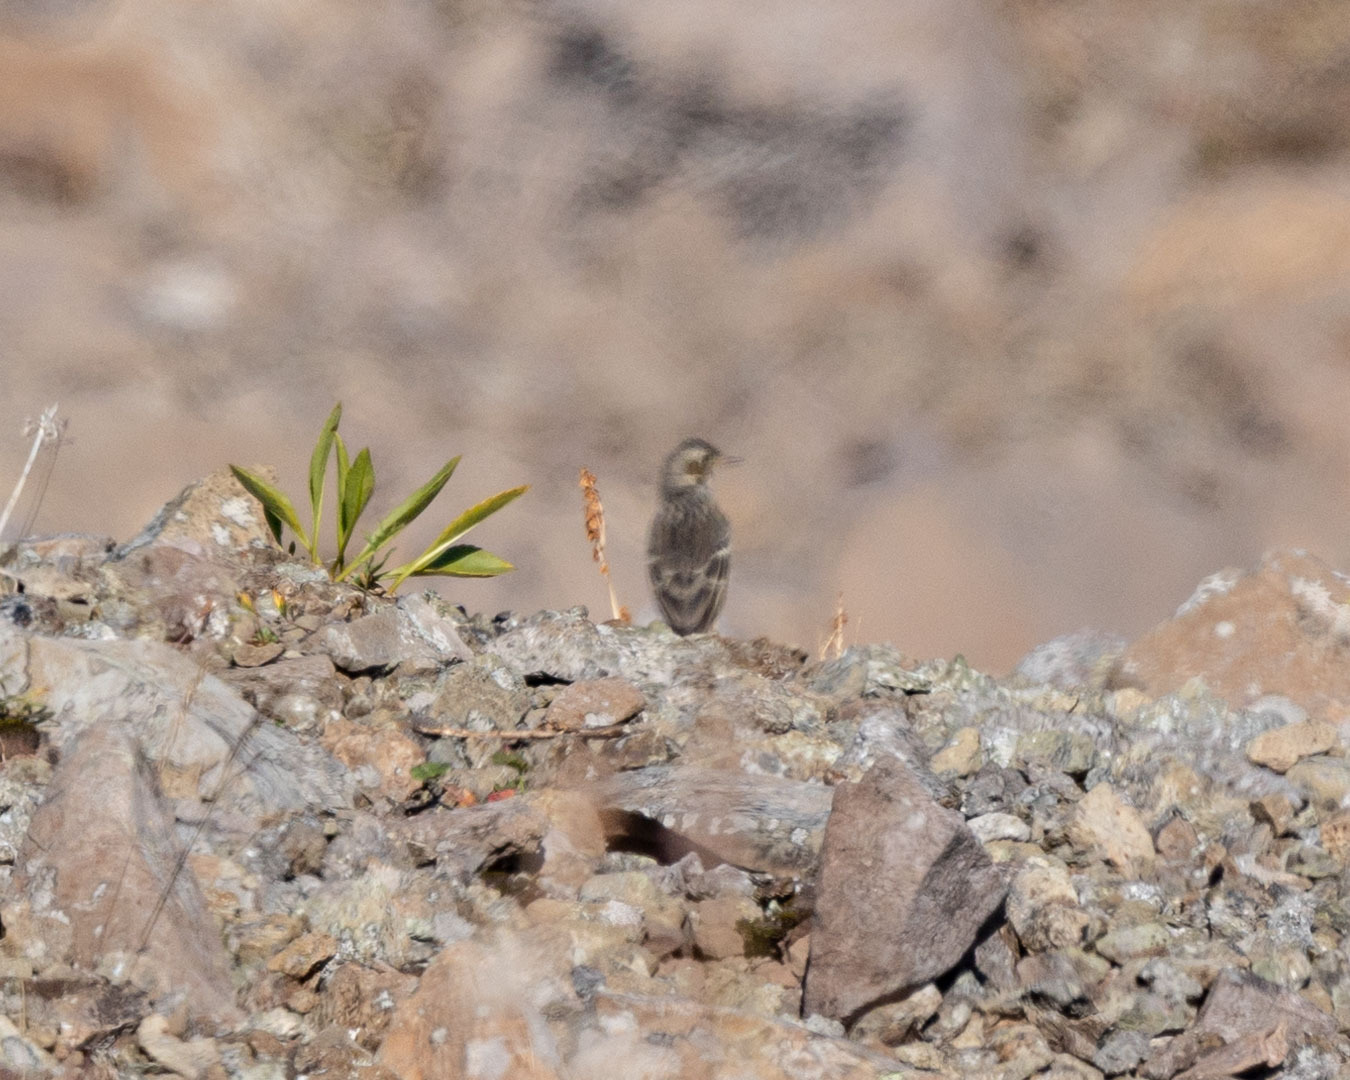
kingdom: Animalia
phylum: Chordata
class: Aves
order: Passeriformes
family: Motacillidae
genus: Anthus
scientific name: Anthus rubescens
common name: Buff-bellied pipit
